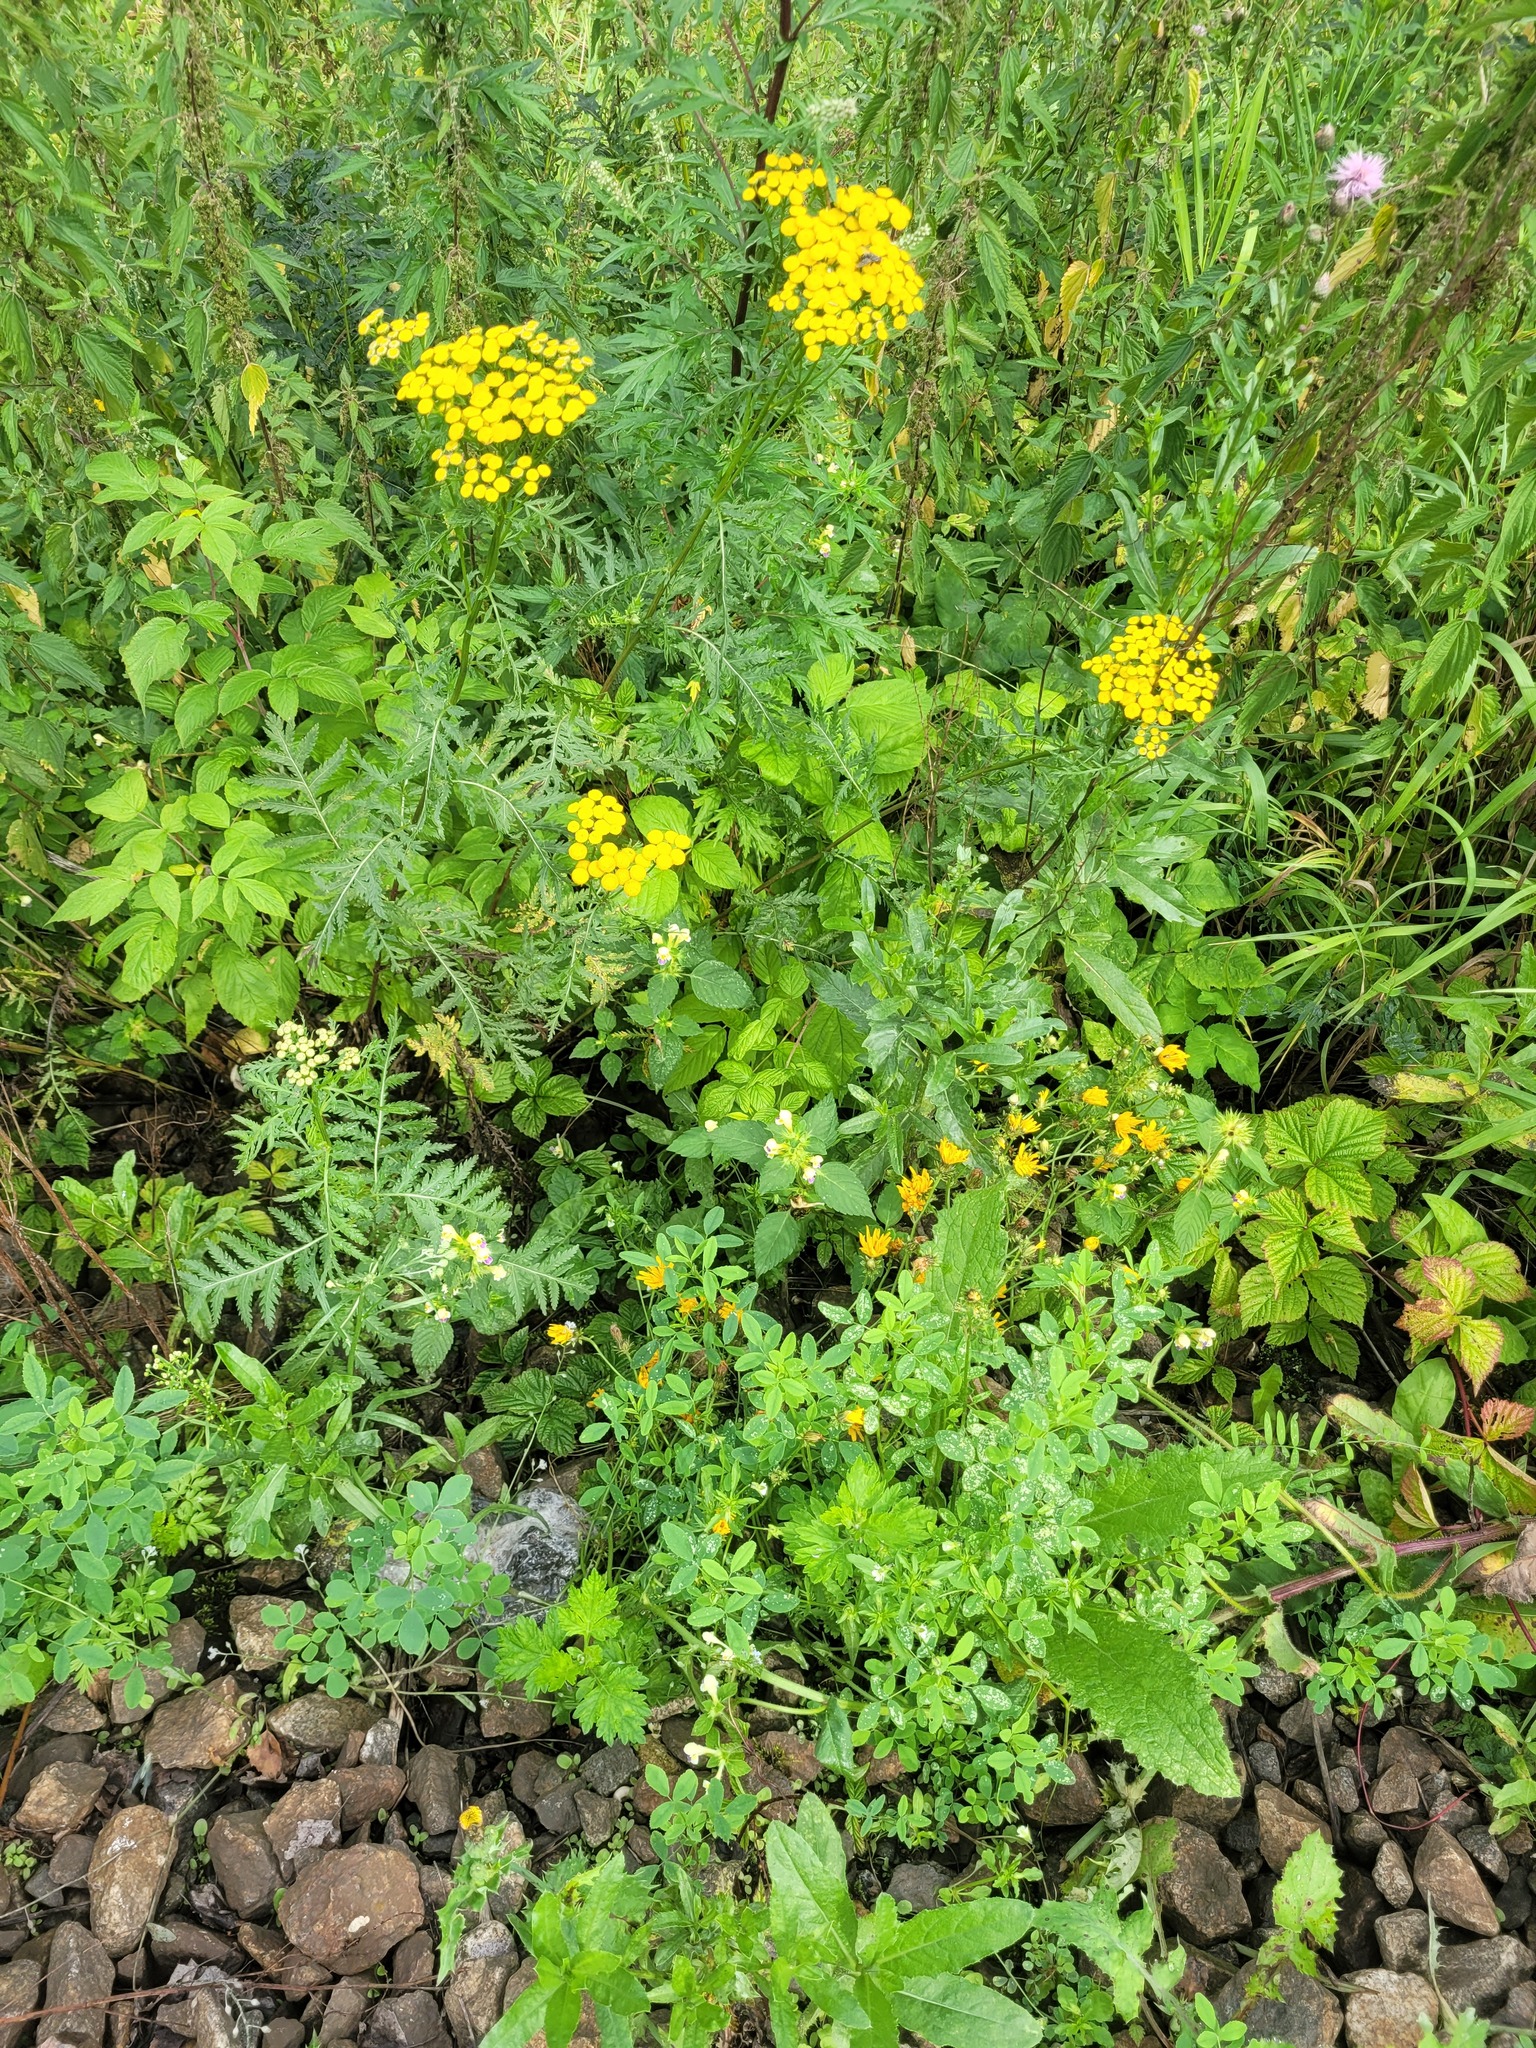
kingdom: Plantae
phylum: Tracheophyta
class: Magnoliopsida
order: Asterales
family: Asteraceae
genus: Tanacetum
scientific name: Tanacetum vulgare
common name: Common tansy
